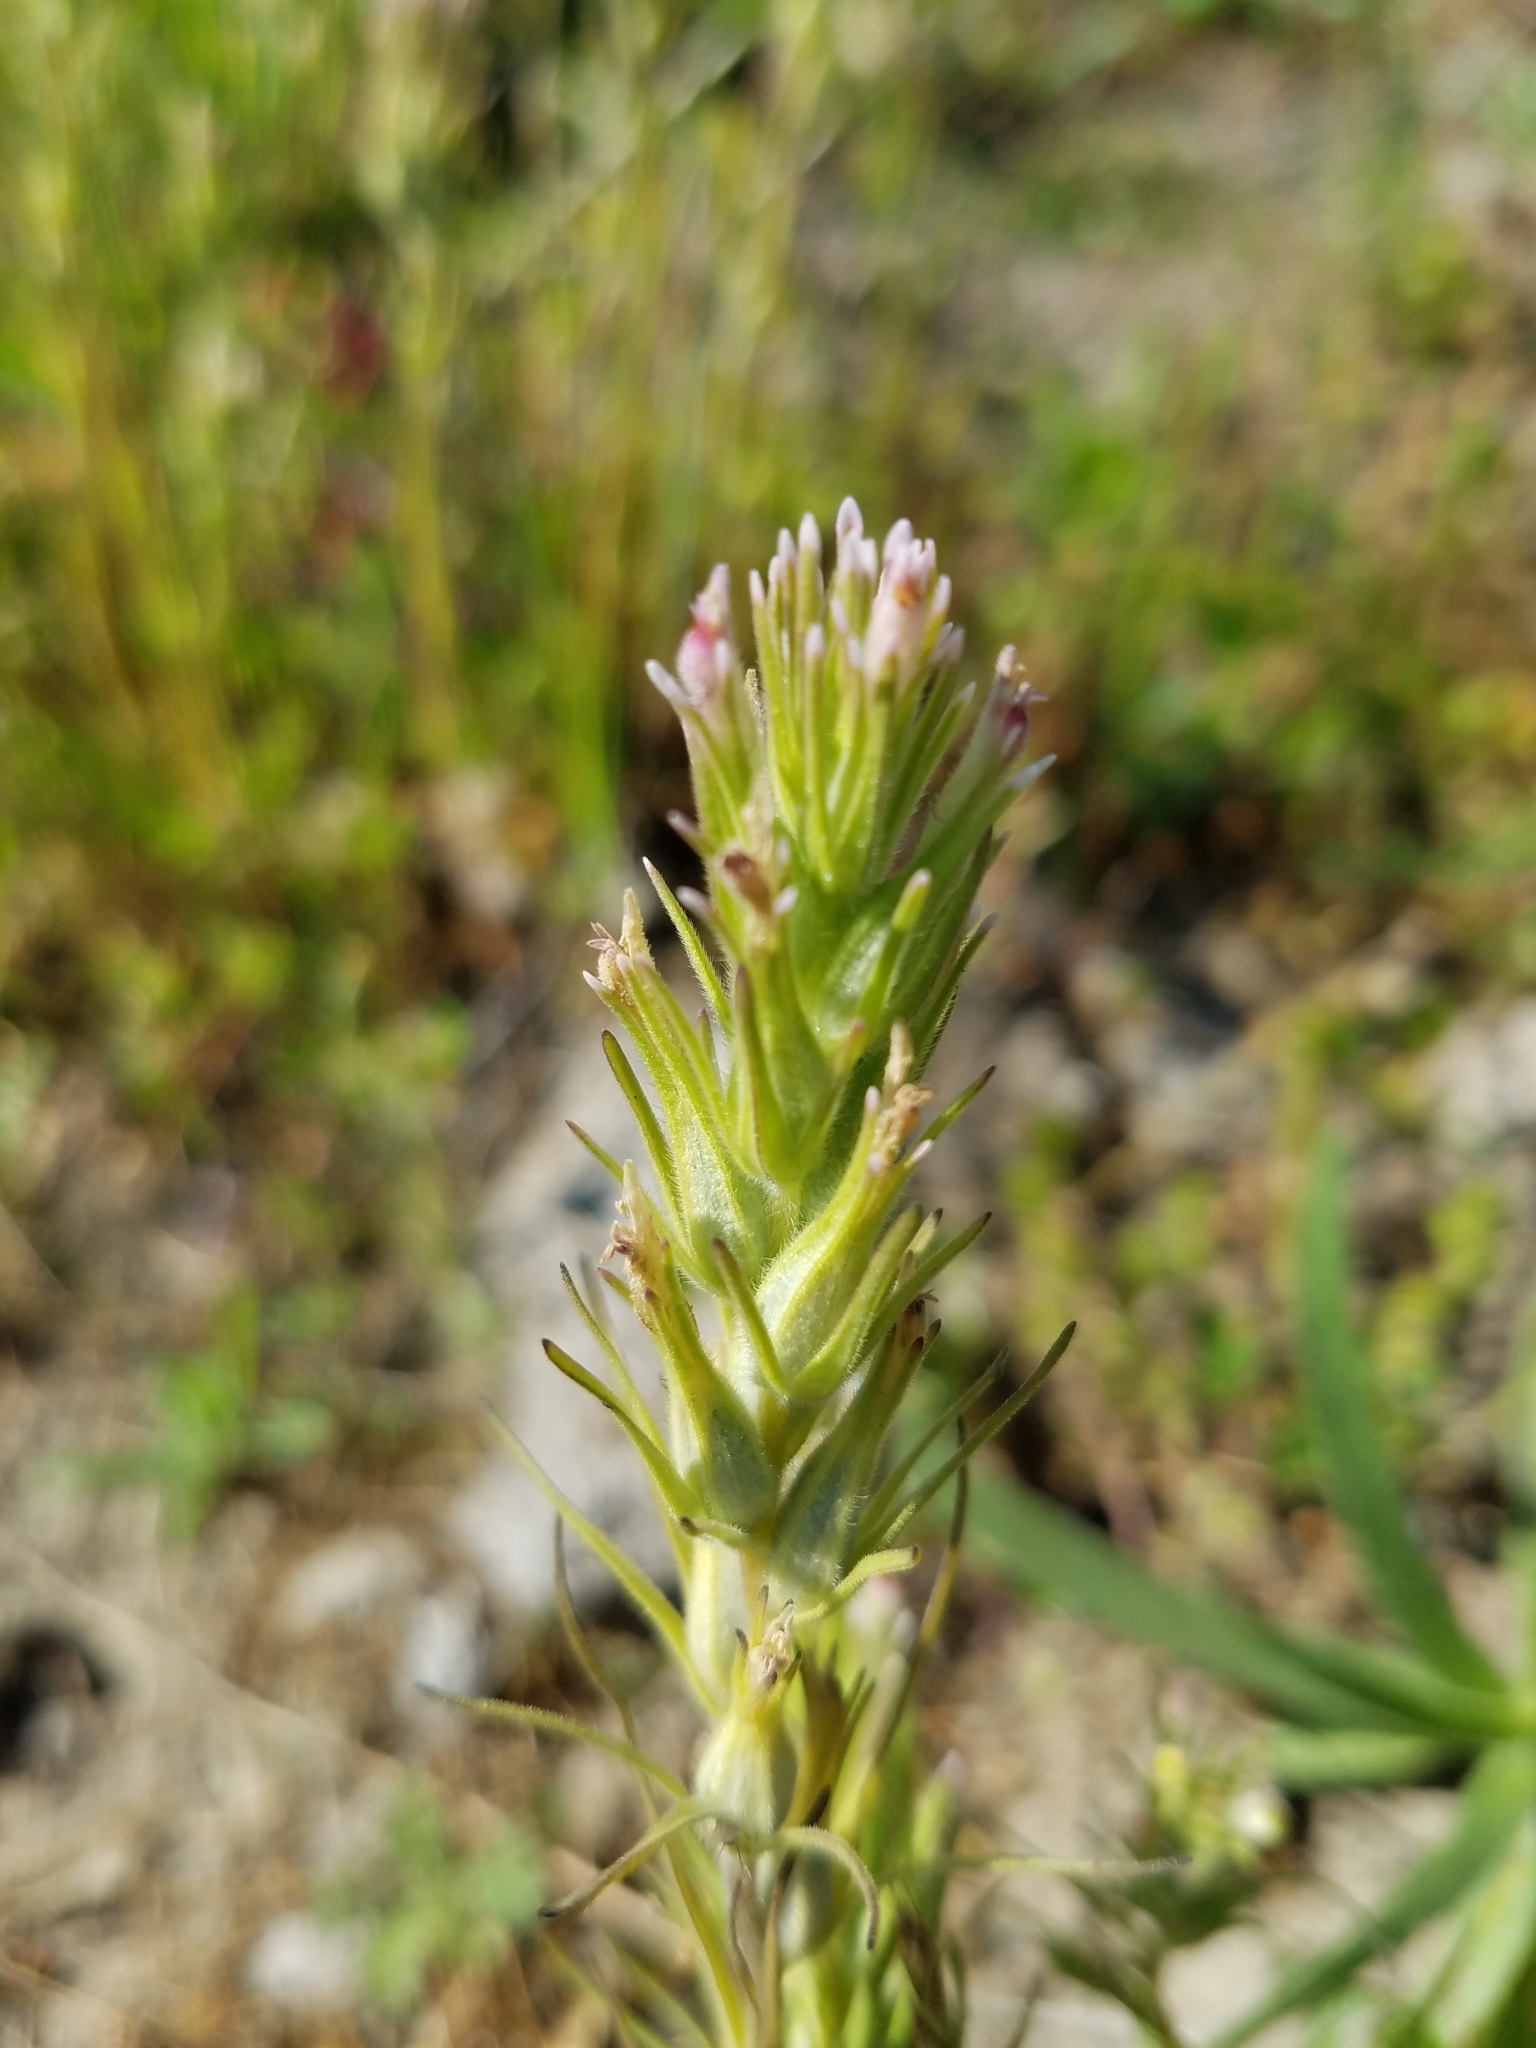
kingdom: Plantae
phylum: Tracheophyta
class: Magnoliopsida
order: Lamiales
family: Orobanchaceae
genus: Castilleja
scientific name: Castilleja attenuata
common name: Valley tassels
